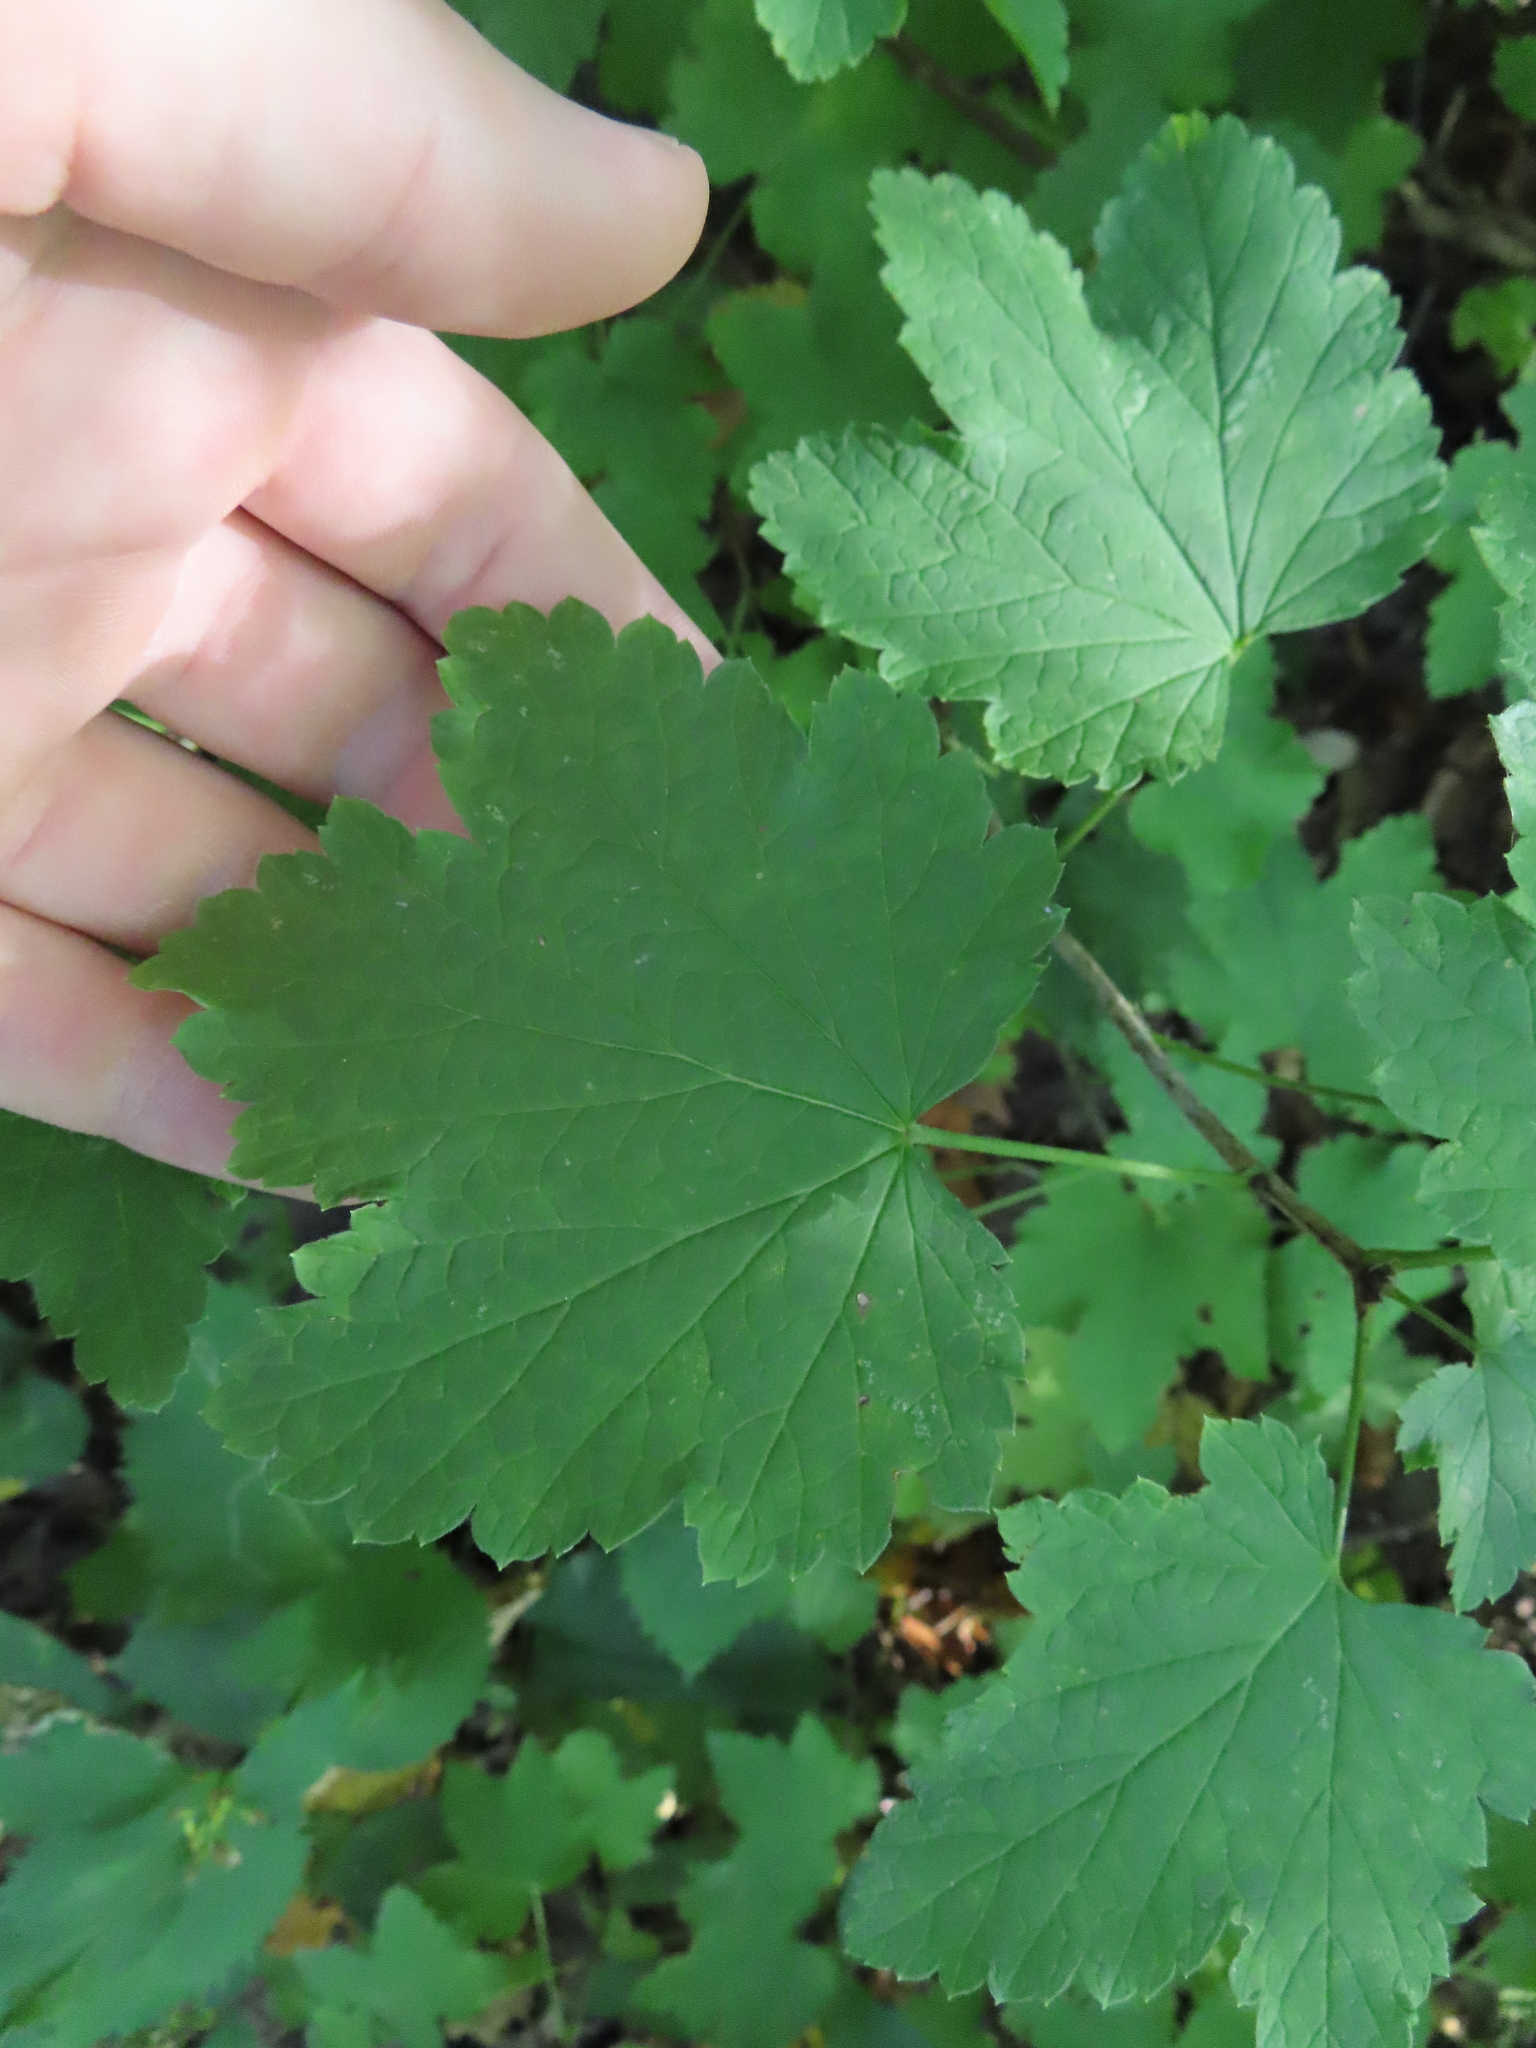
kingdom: Plantae
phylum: Tracheophyta
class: Magnoliopsida
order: Saxifragales
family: Grossulariaceae
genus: Ribes
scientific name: Ribes rubrum
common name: Red currant
